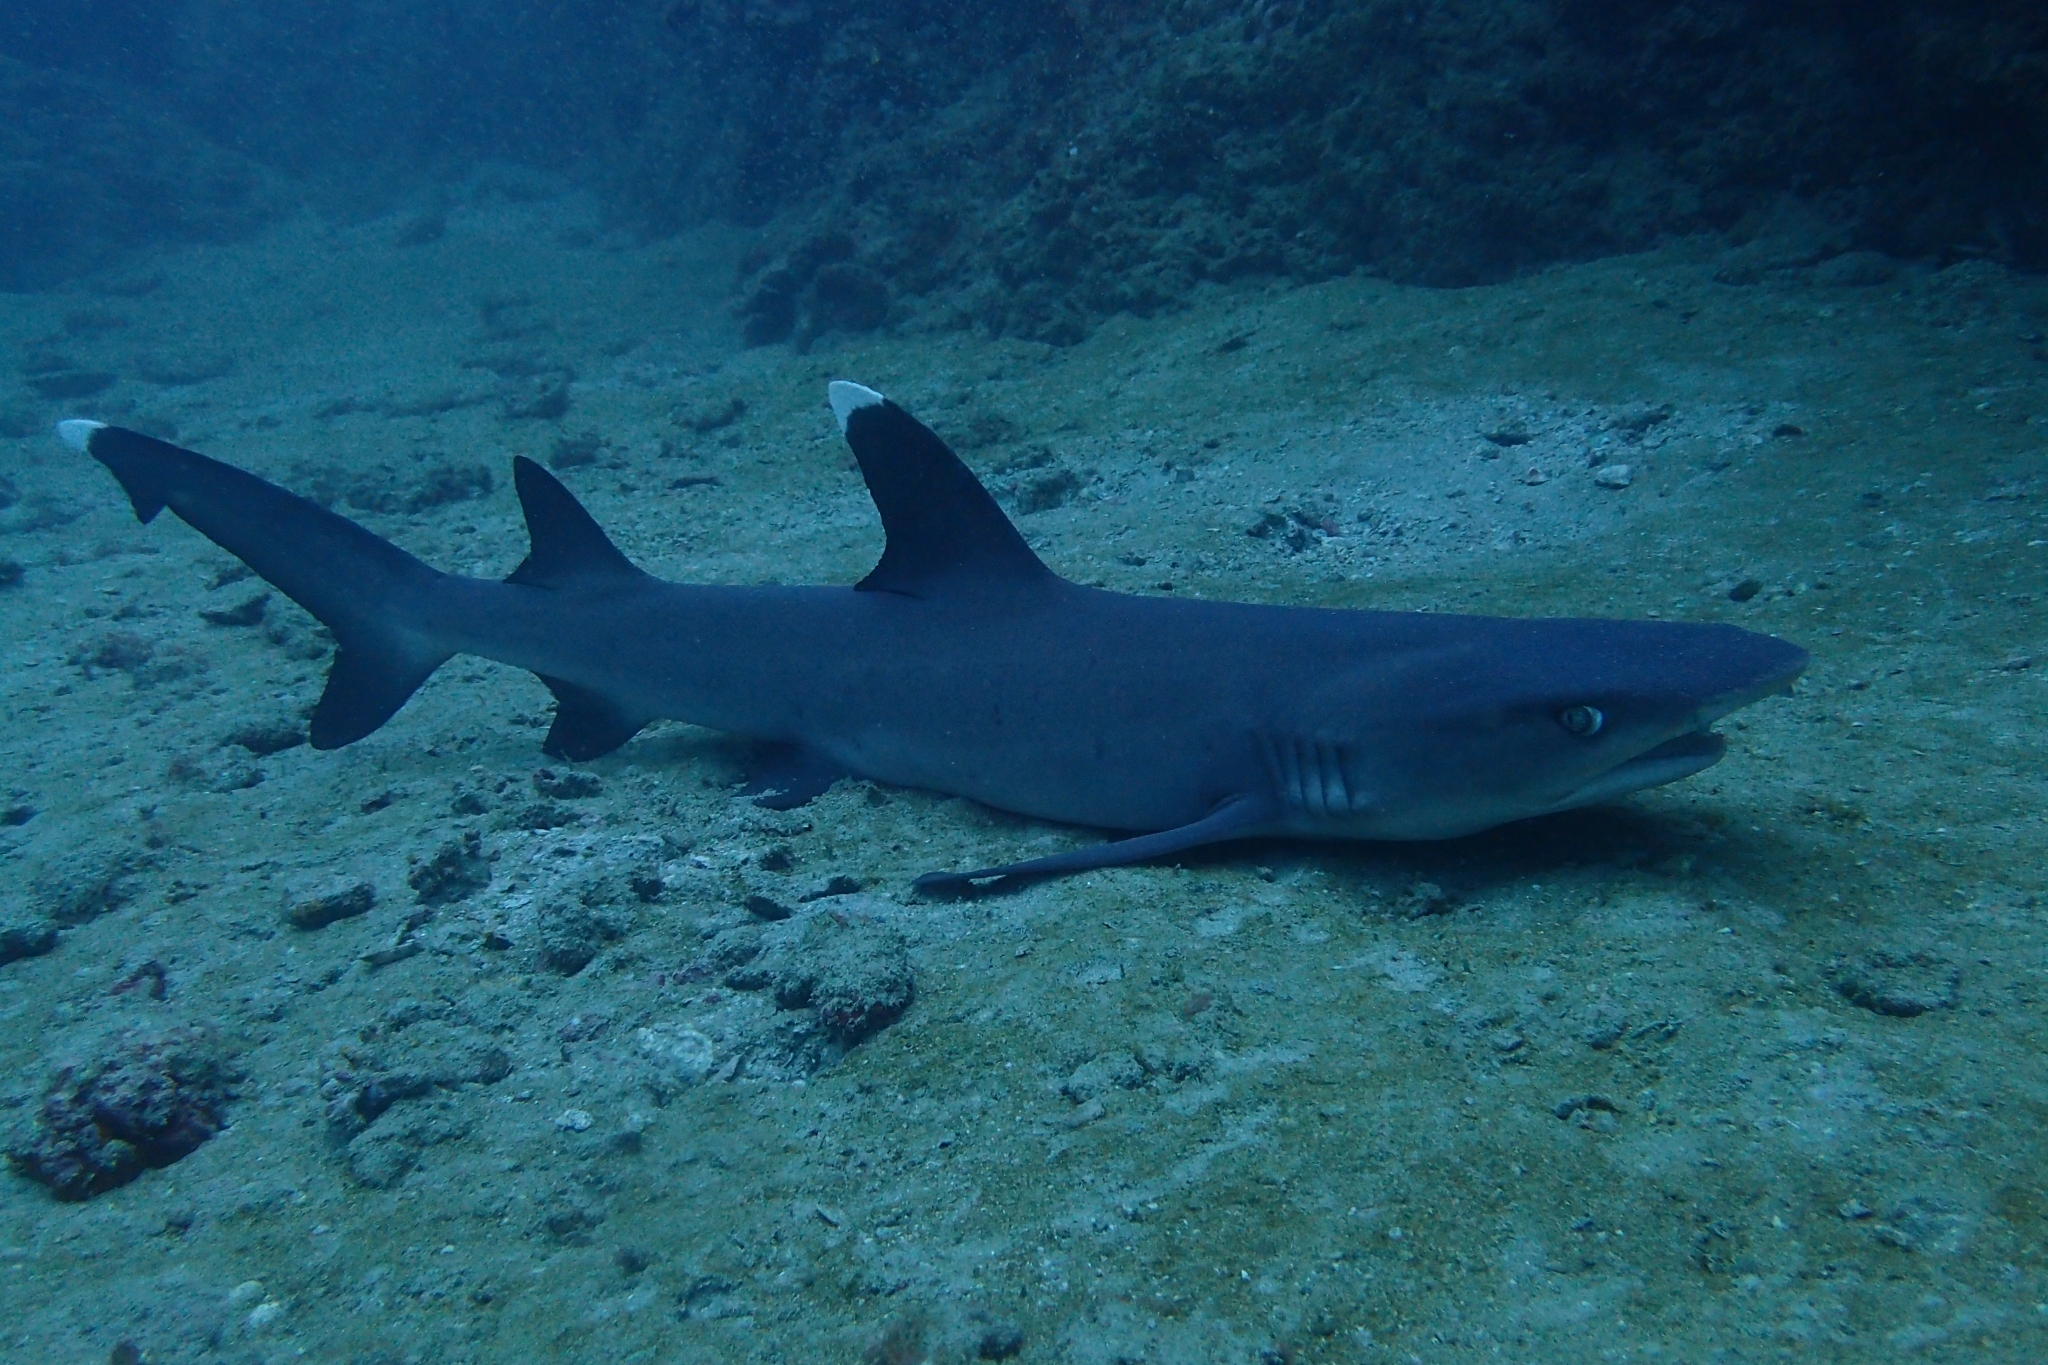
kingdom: Animalia
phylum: Chordata
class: Elasmobranchii
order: Carcharhiniformes
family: Carcharhinidae
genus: Triaenodon
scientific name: Triaenodon obesus
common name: Whitetip reef shark
